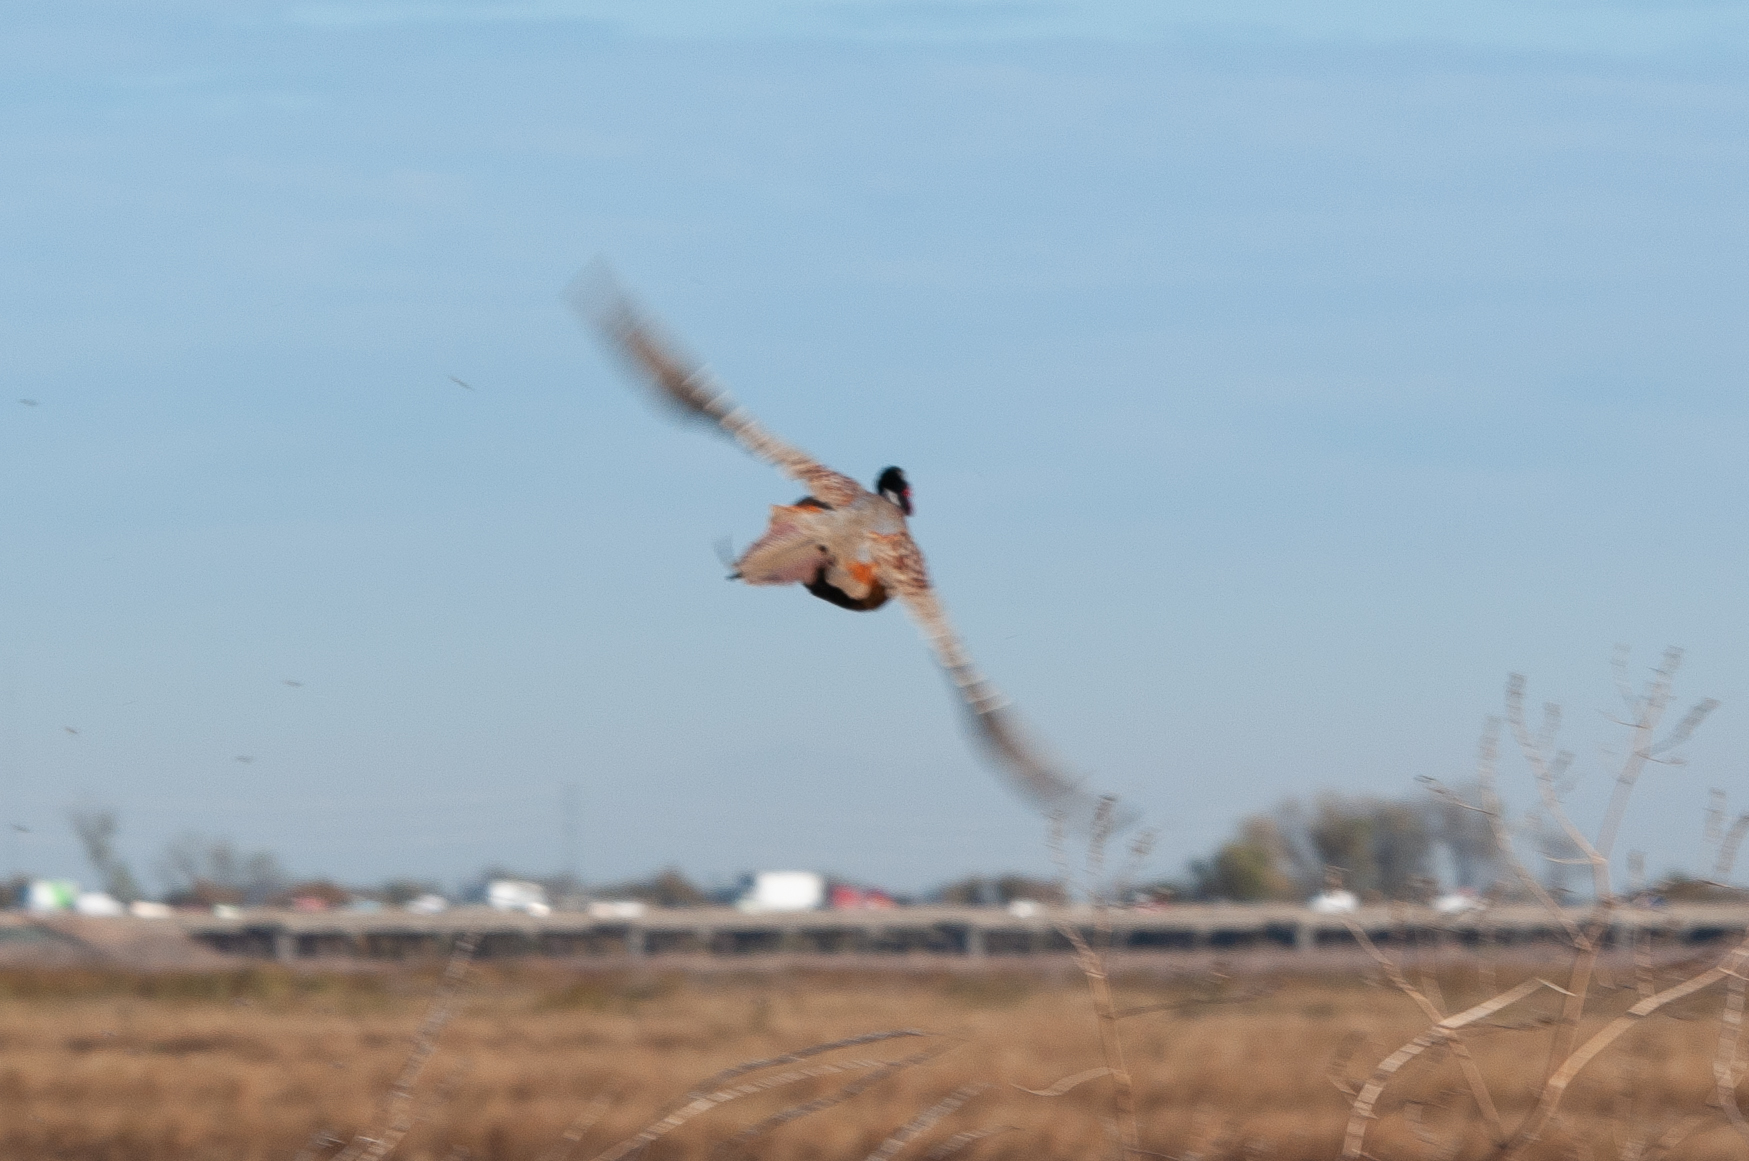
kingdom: Animalia
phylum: Chordata
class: Aves
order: Galliformes
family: Phasianidae
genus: Phasianus
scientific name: Phasianus colchicus
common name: Common pheasant
